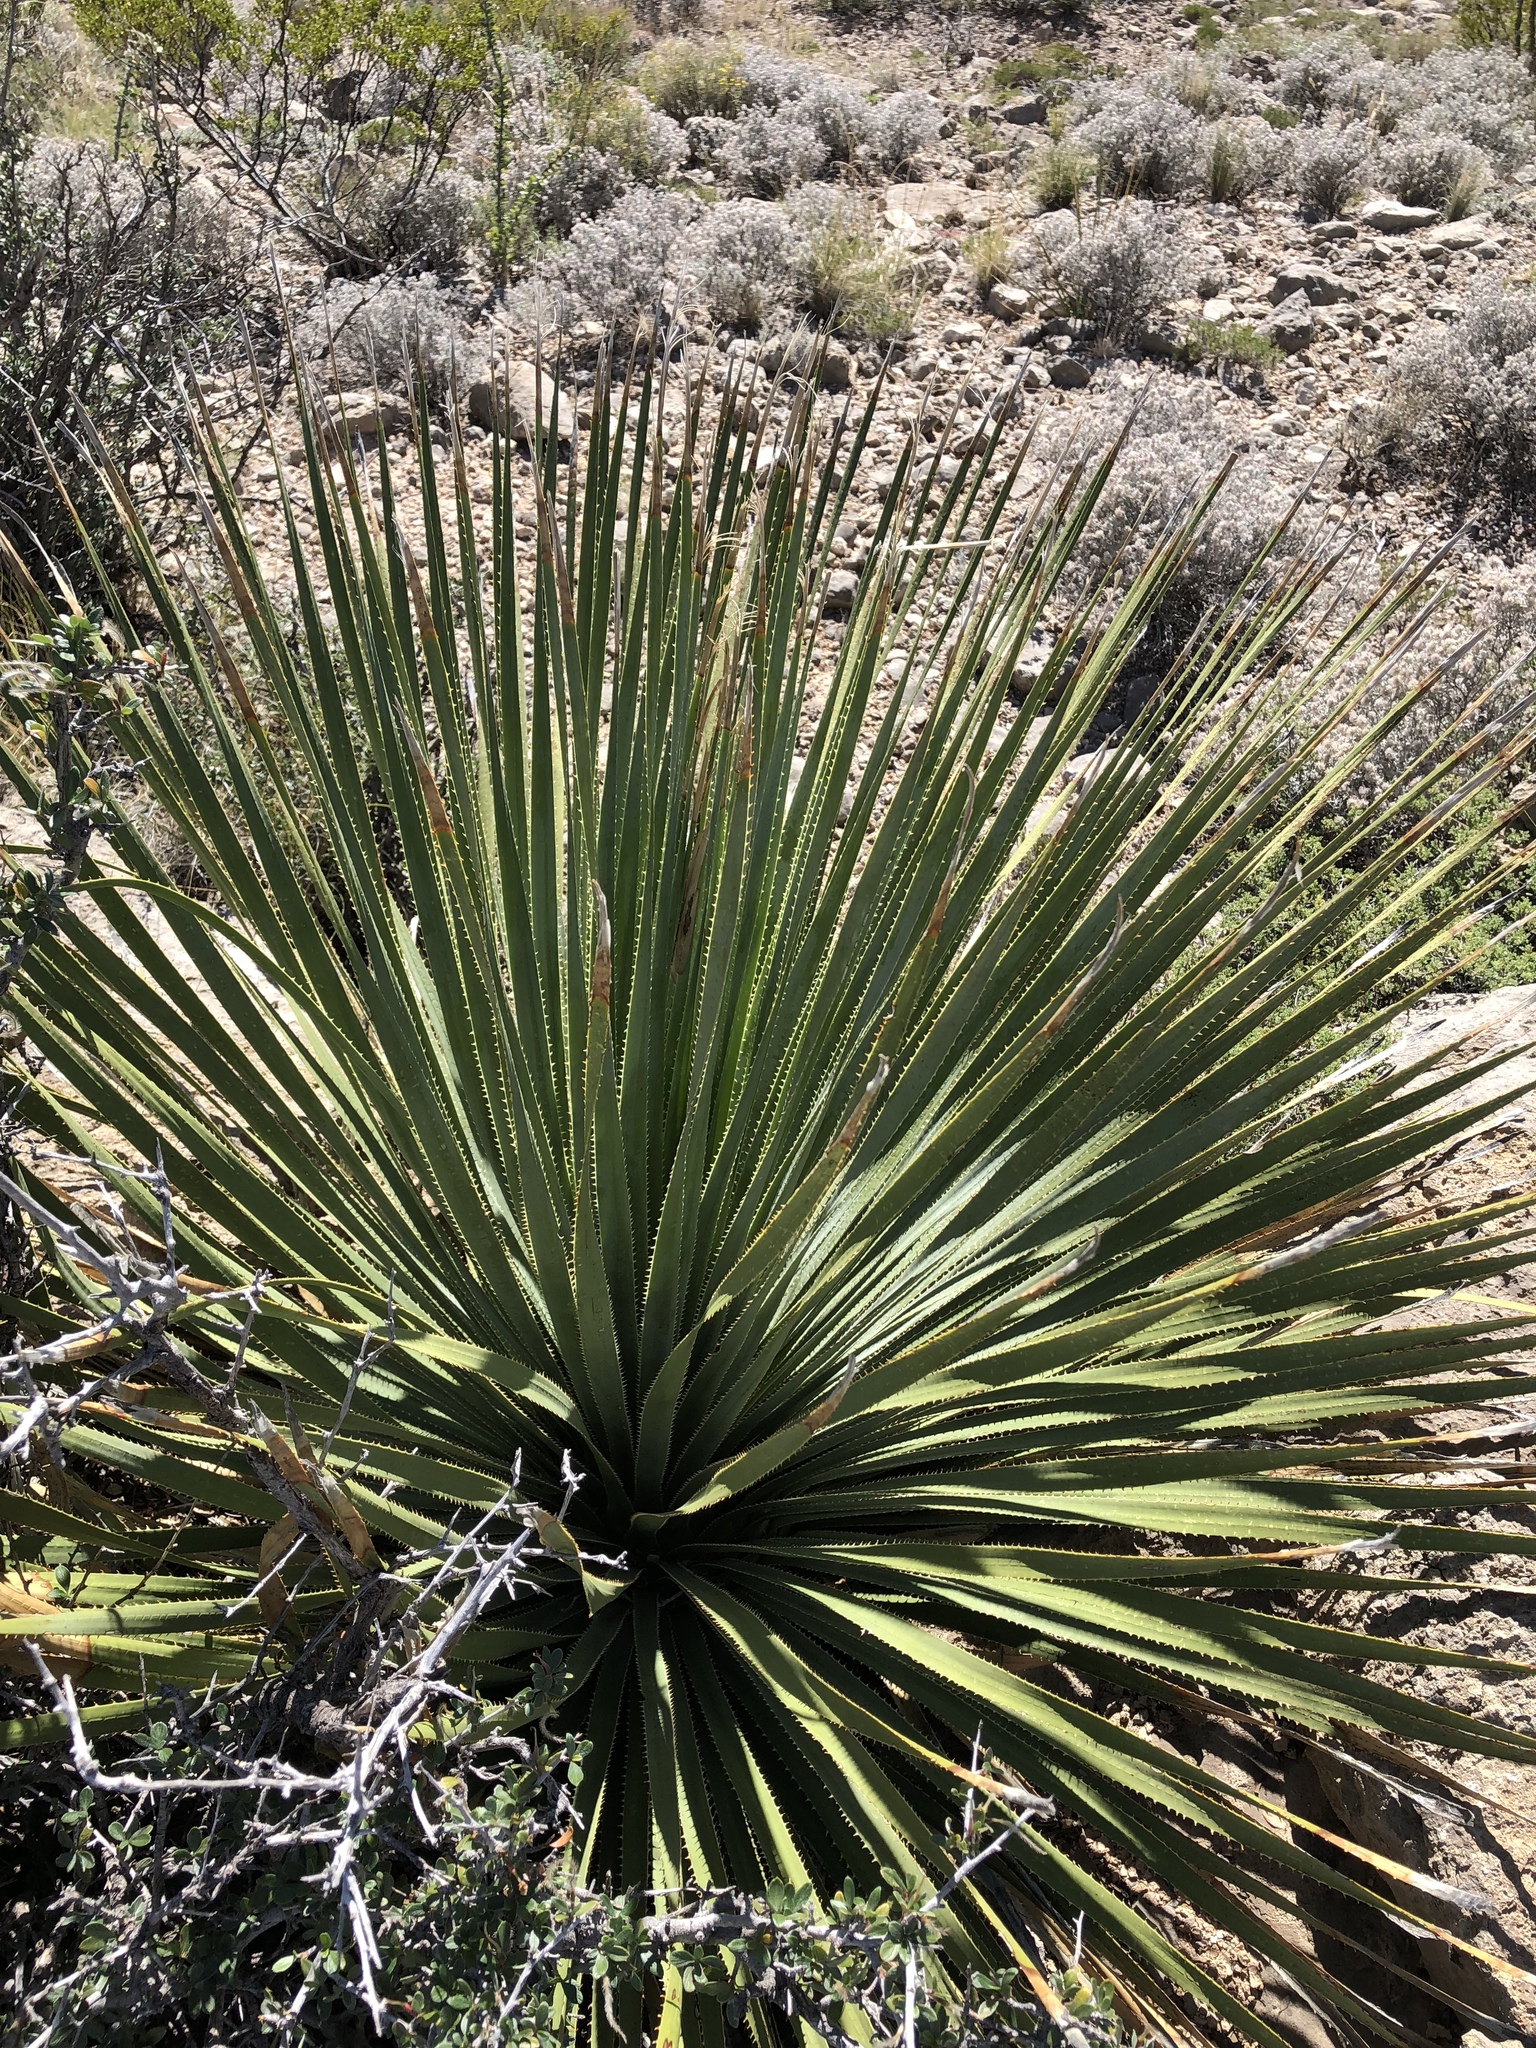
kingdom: Plantae
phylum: Tracheophyta
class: Liliopsida
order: Asparagales
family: Asparagaceae
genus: Dasylirion
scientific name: Dasylirion wheeleri
